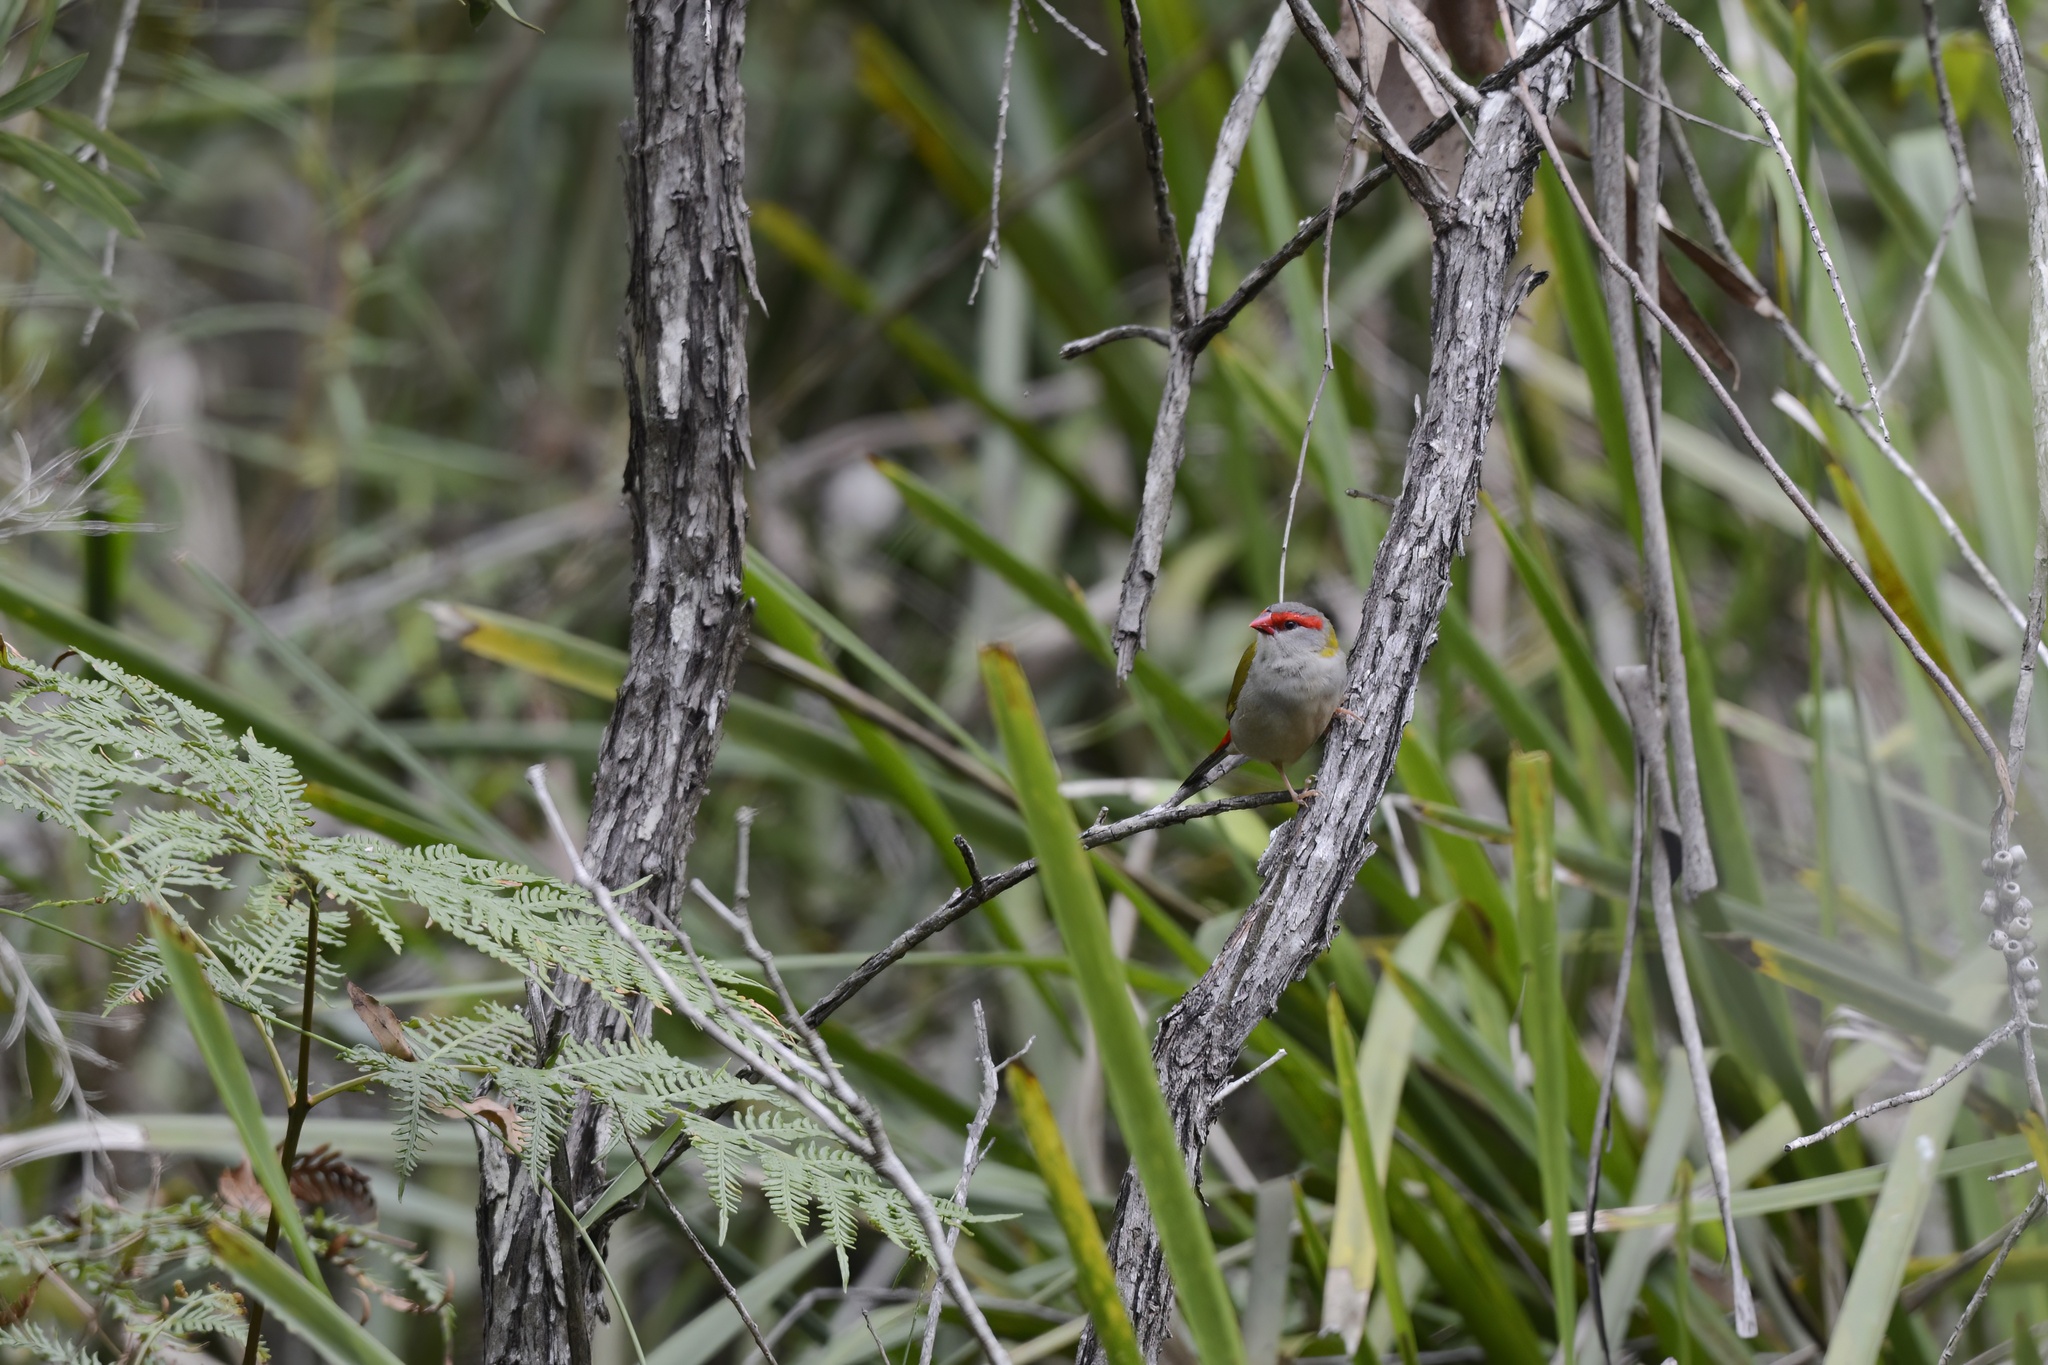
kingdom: Animalia
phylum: Chordata
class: Aves
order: Passeriformes
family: Estrildidae
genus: Neochmia
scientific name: Neochmia temporalis
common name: Red-browed finch
